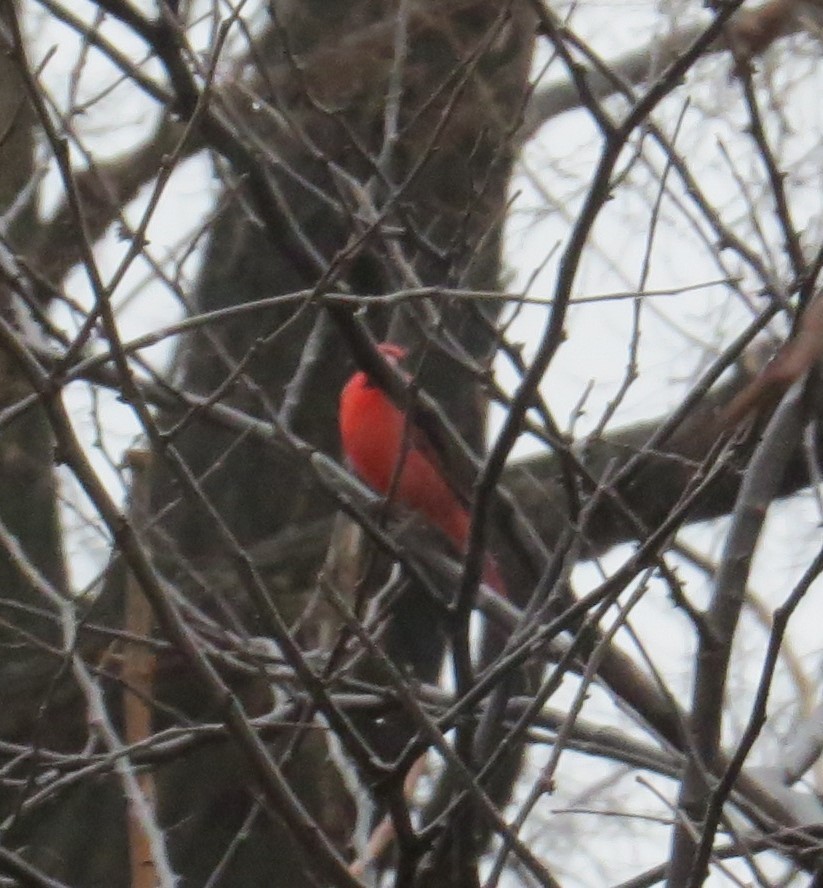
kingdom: Animalia
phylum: Chordata
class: Aves
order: Passeriformes
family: Cardinalidae
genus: Cardinalis
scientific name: Cardinalis cardinalis
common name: Northern cardinal
